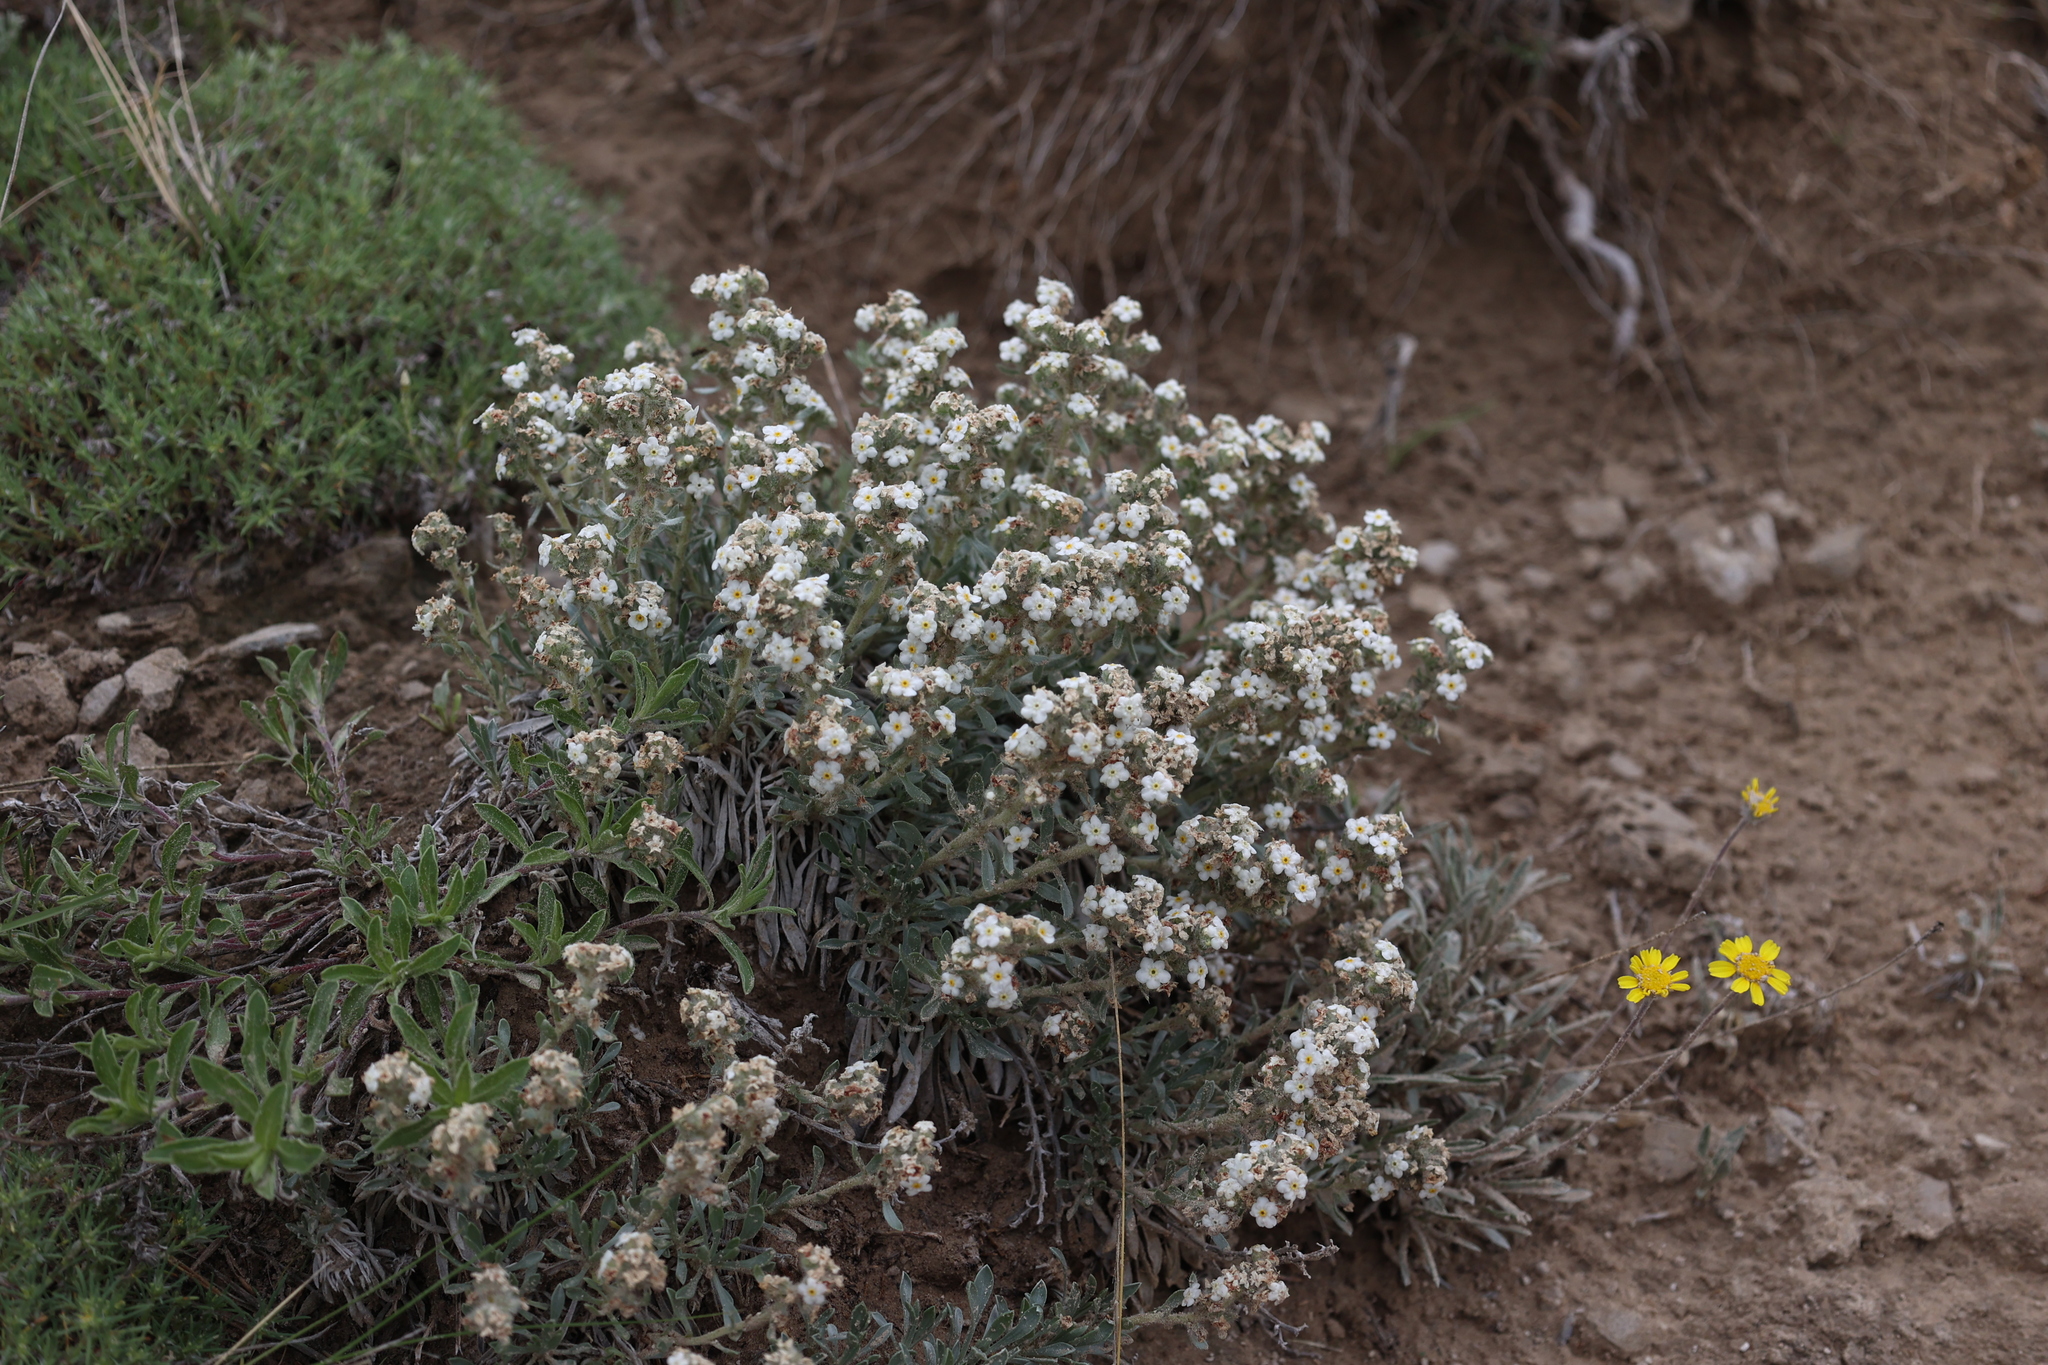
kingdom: Plantae
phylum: Tracheophyta
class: Magnoliopsida
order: Boraginales
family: Boraginaceae
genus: Oreocarya
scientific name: Oreocarya glomerata
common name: Macoun's cryptantha
